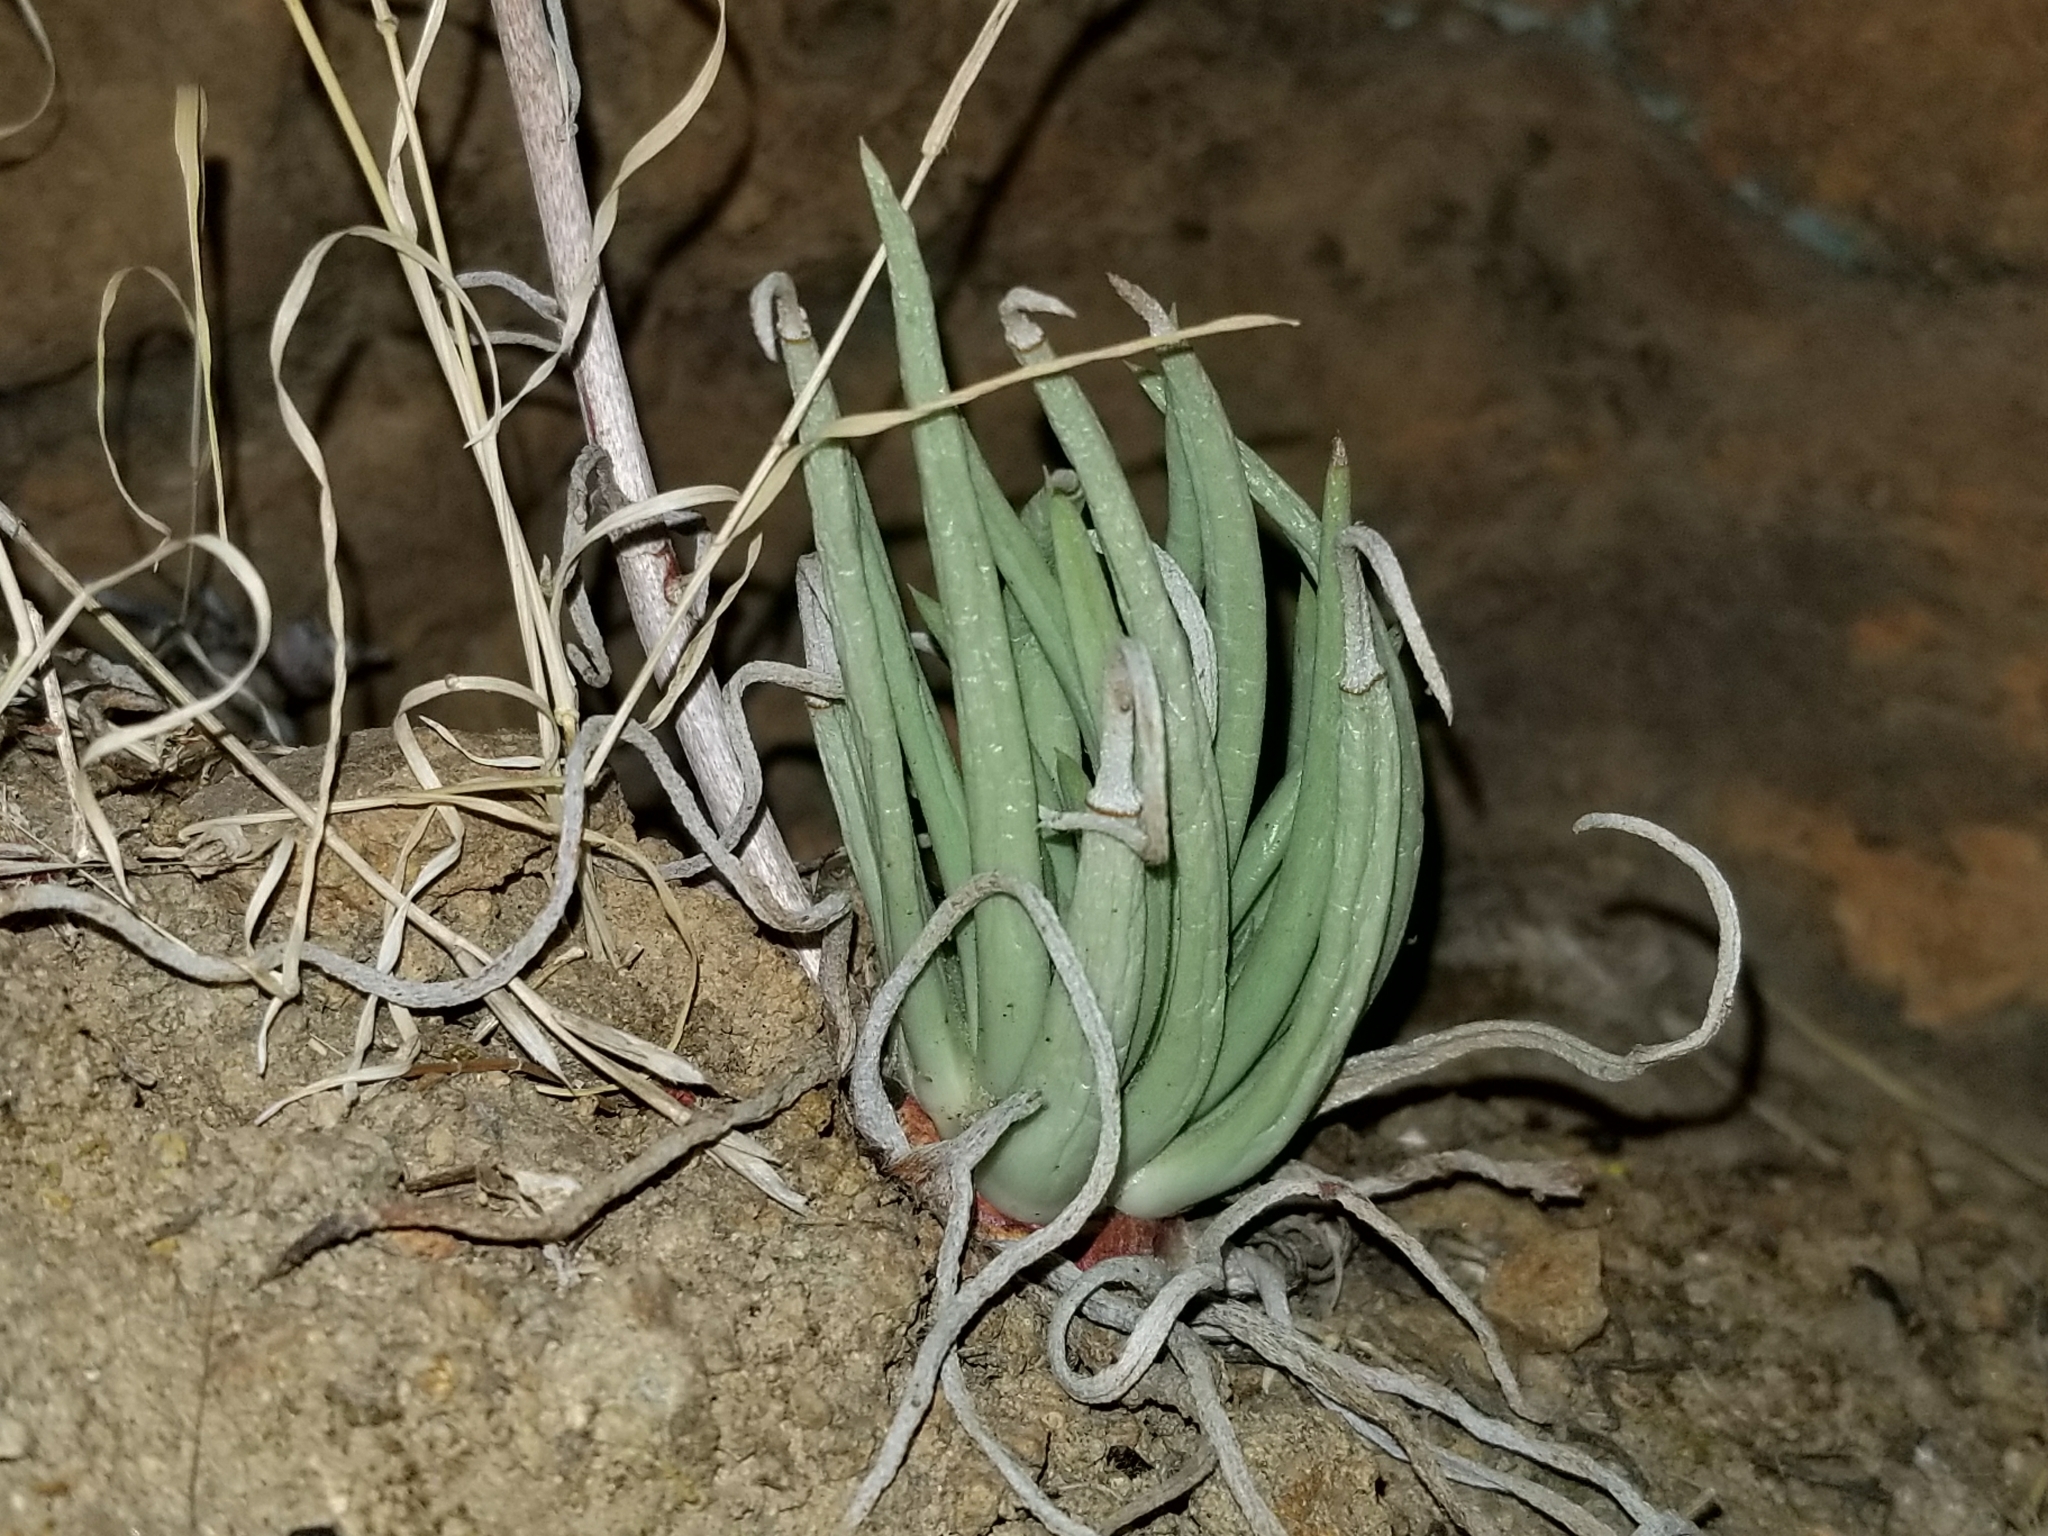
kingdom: Plantae
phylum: Tracheophyta
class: Magnoliopsida
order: Saxifragales
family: Crassulaceae
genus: Dudleya
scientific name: Dudleya edulis
